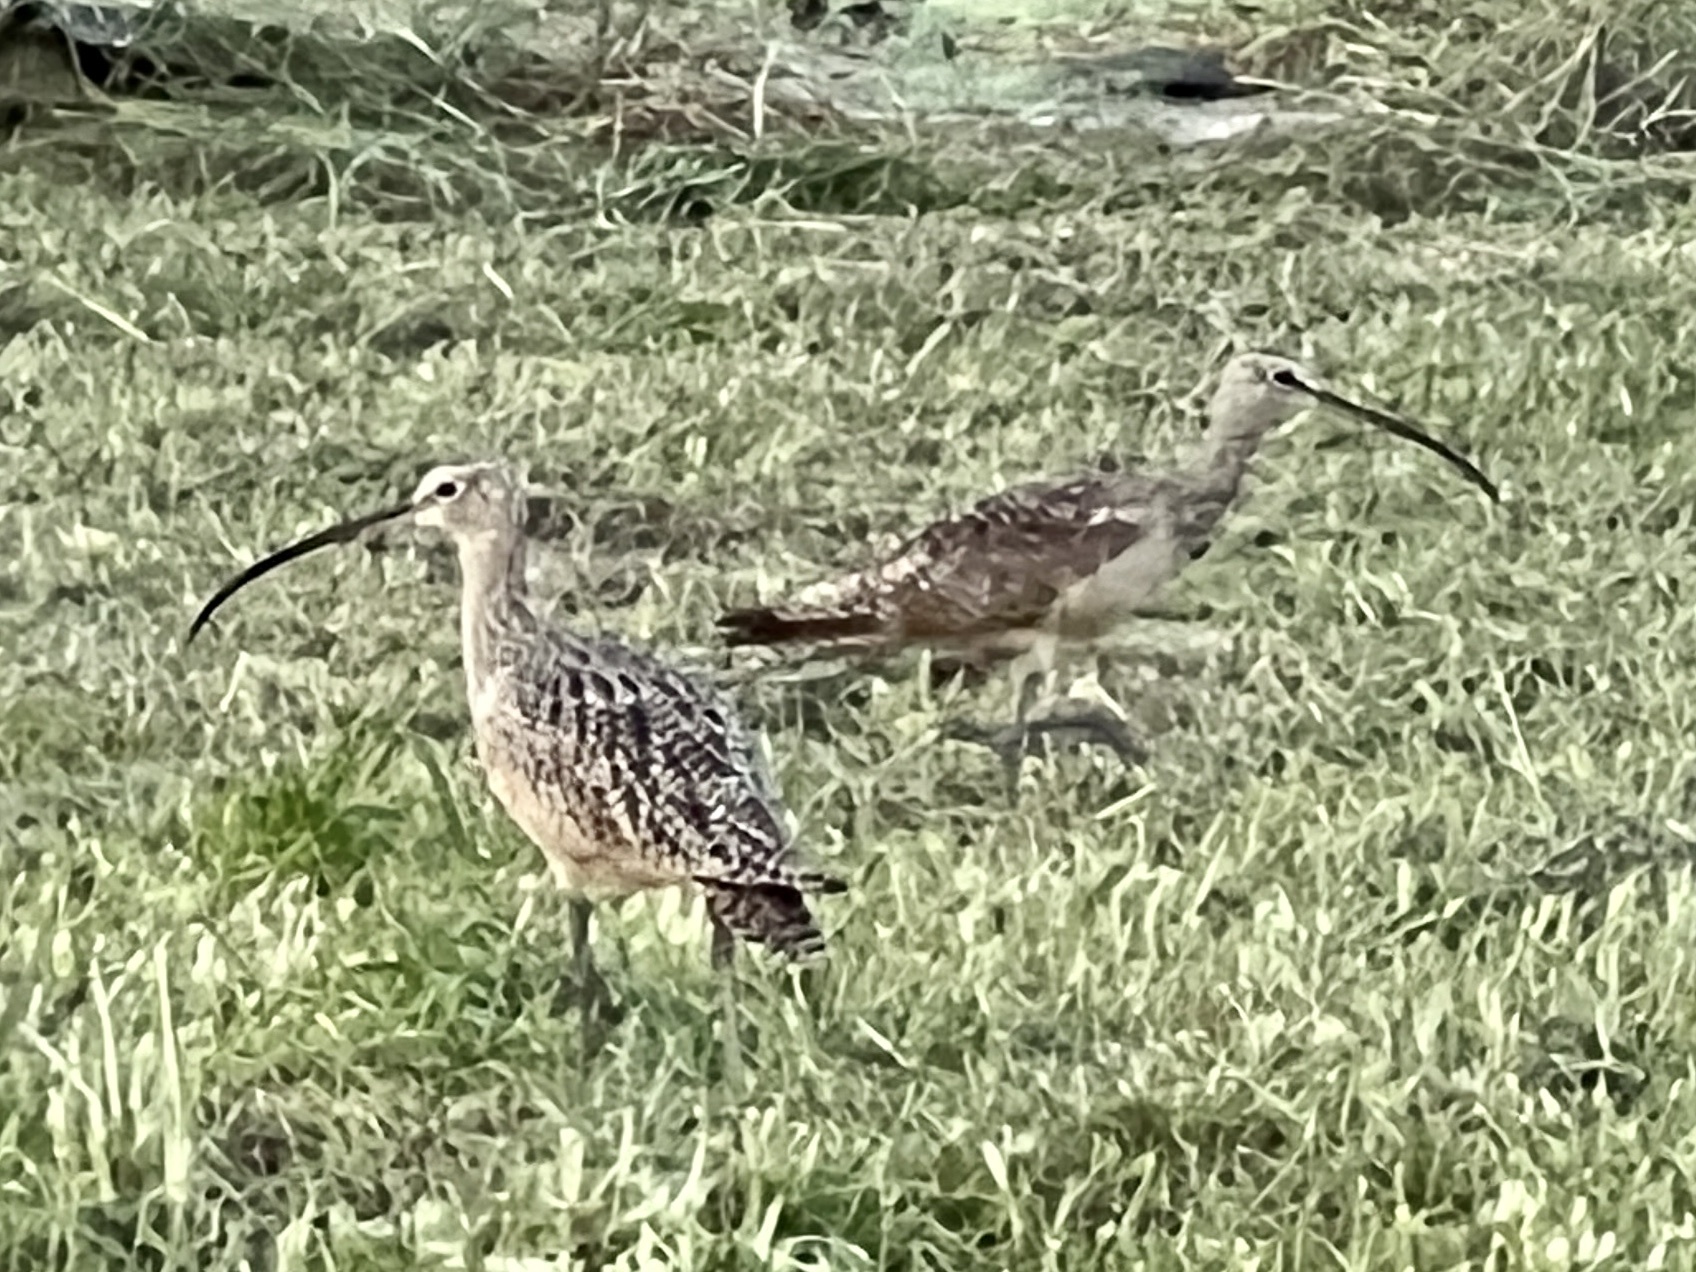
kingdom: Animalia
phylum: Chordata
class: Aves
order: Charadriiformes
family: Scolopacidae
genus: Numenius
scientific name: Numenius americanus
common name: Long-billed curlew
